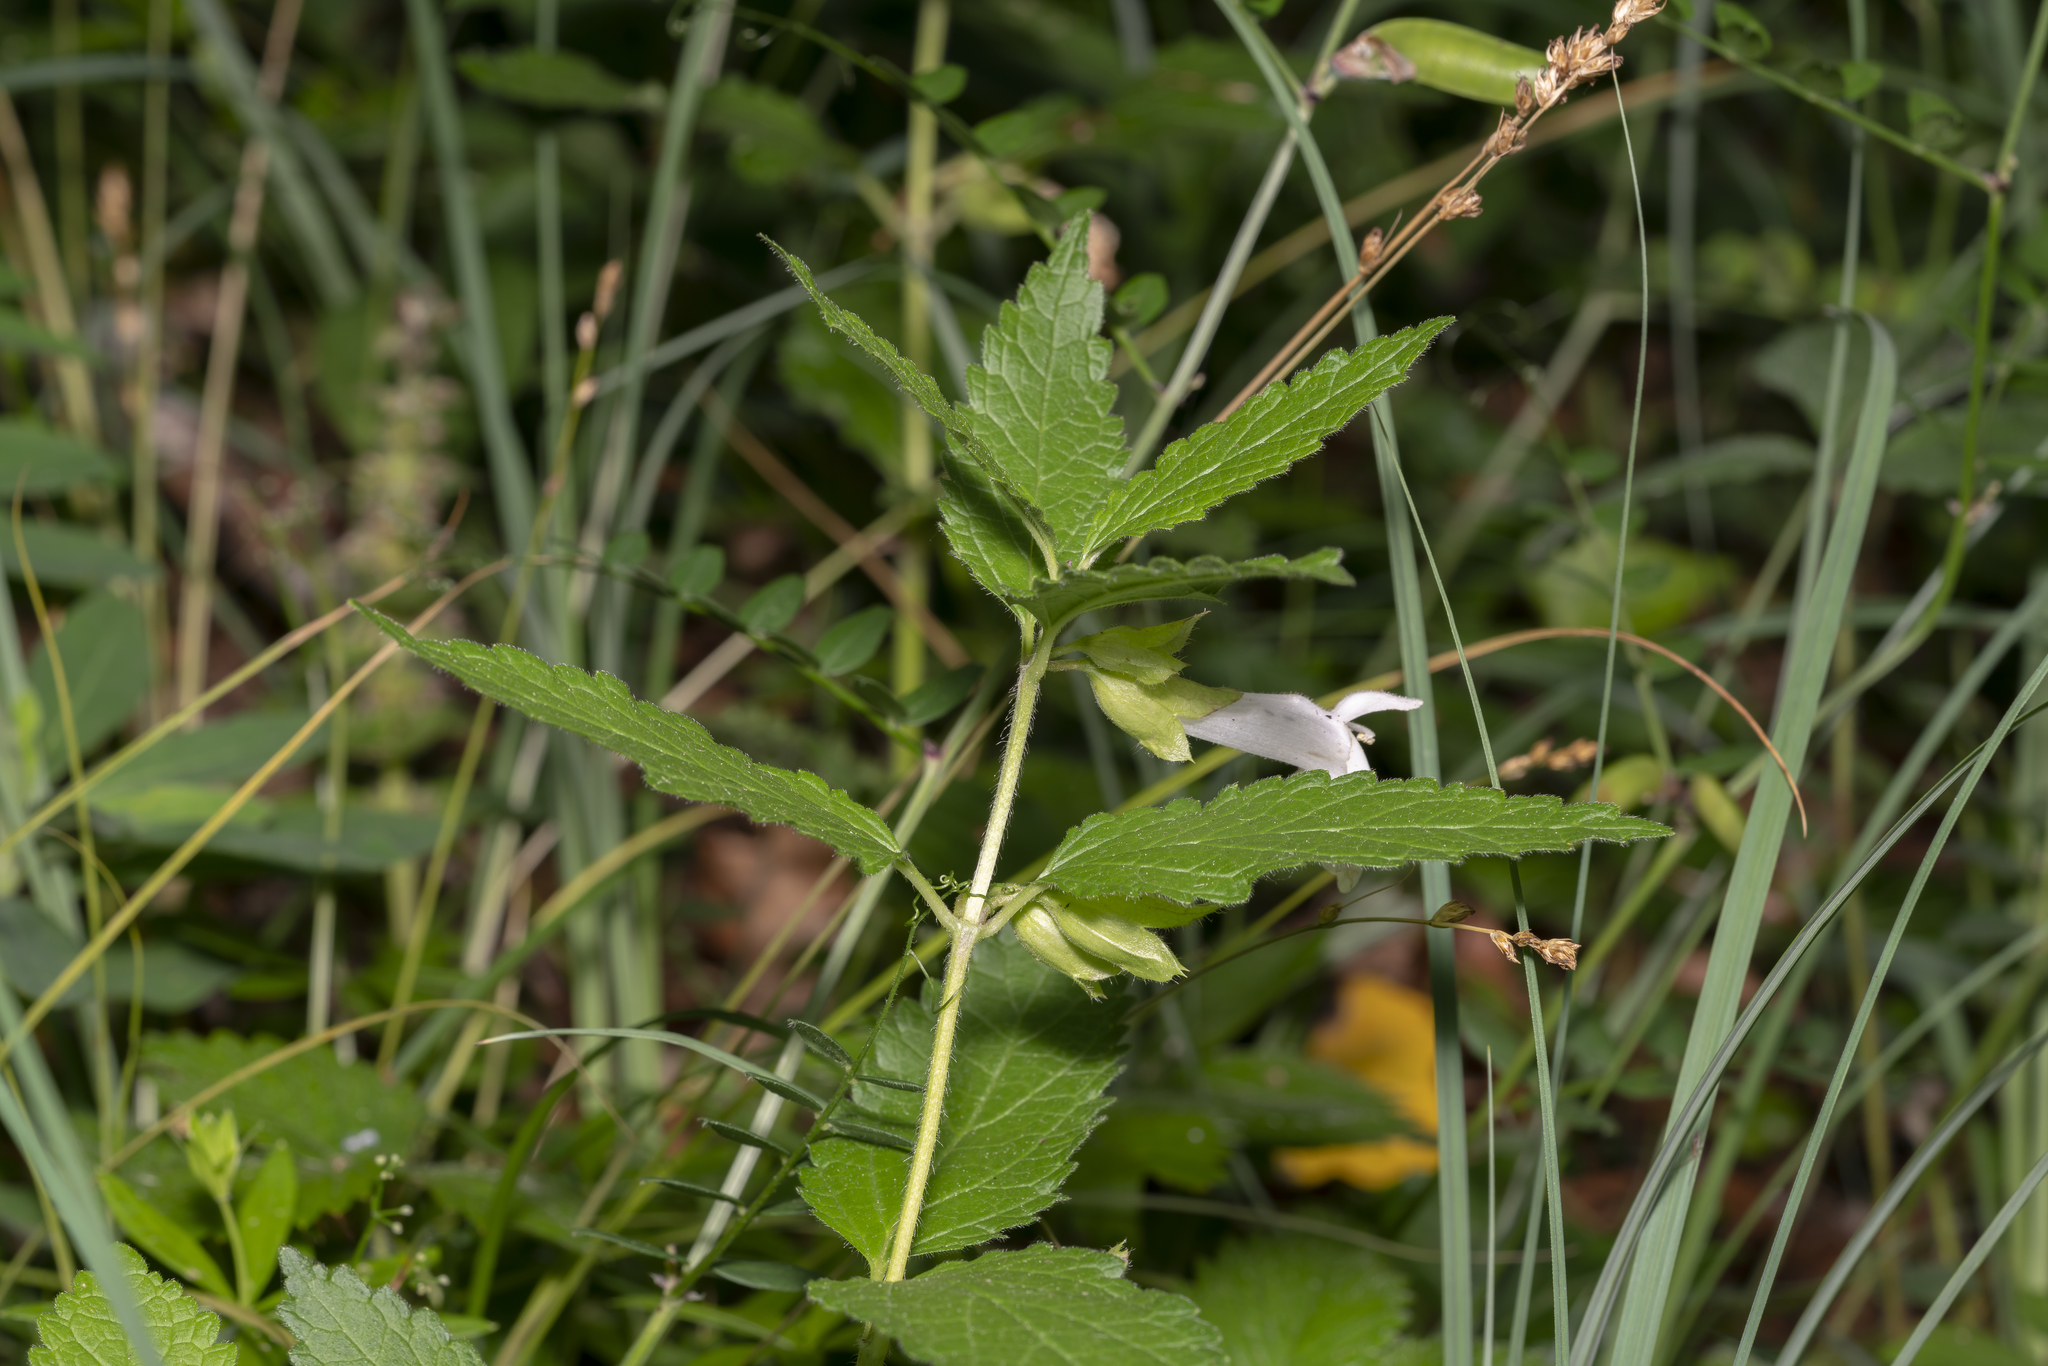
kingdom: Plantae
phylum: Tracheophyta
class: Magnoliopsida
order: Lamiales
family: Lamiaceae
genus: Melittis
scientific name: Melittis melissophyllum
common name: Bastard balm
